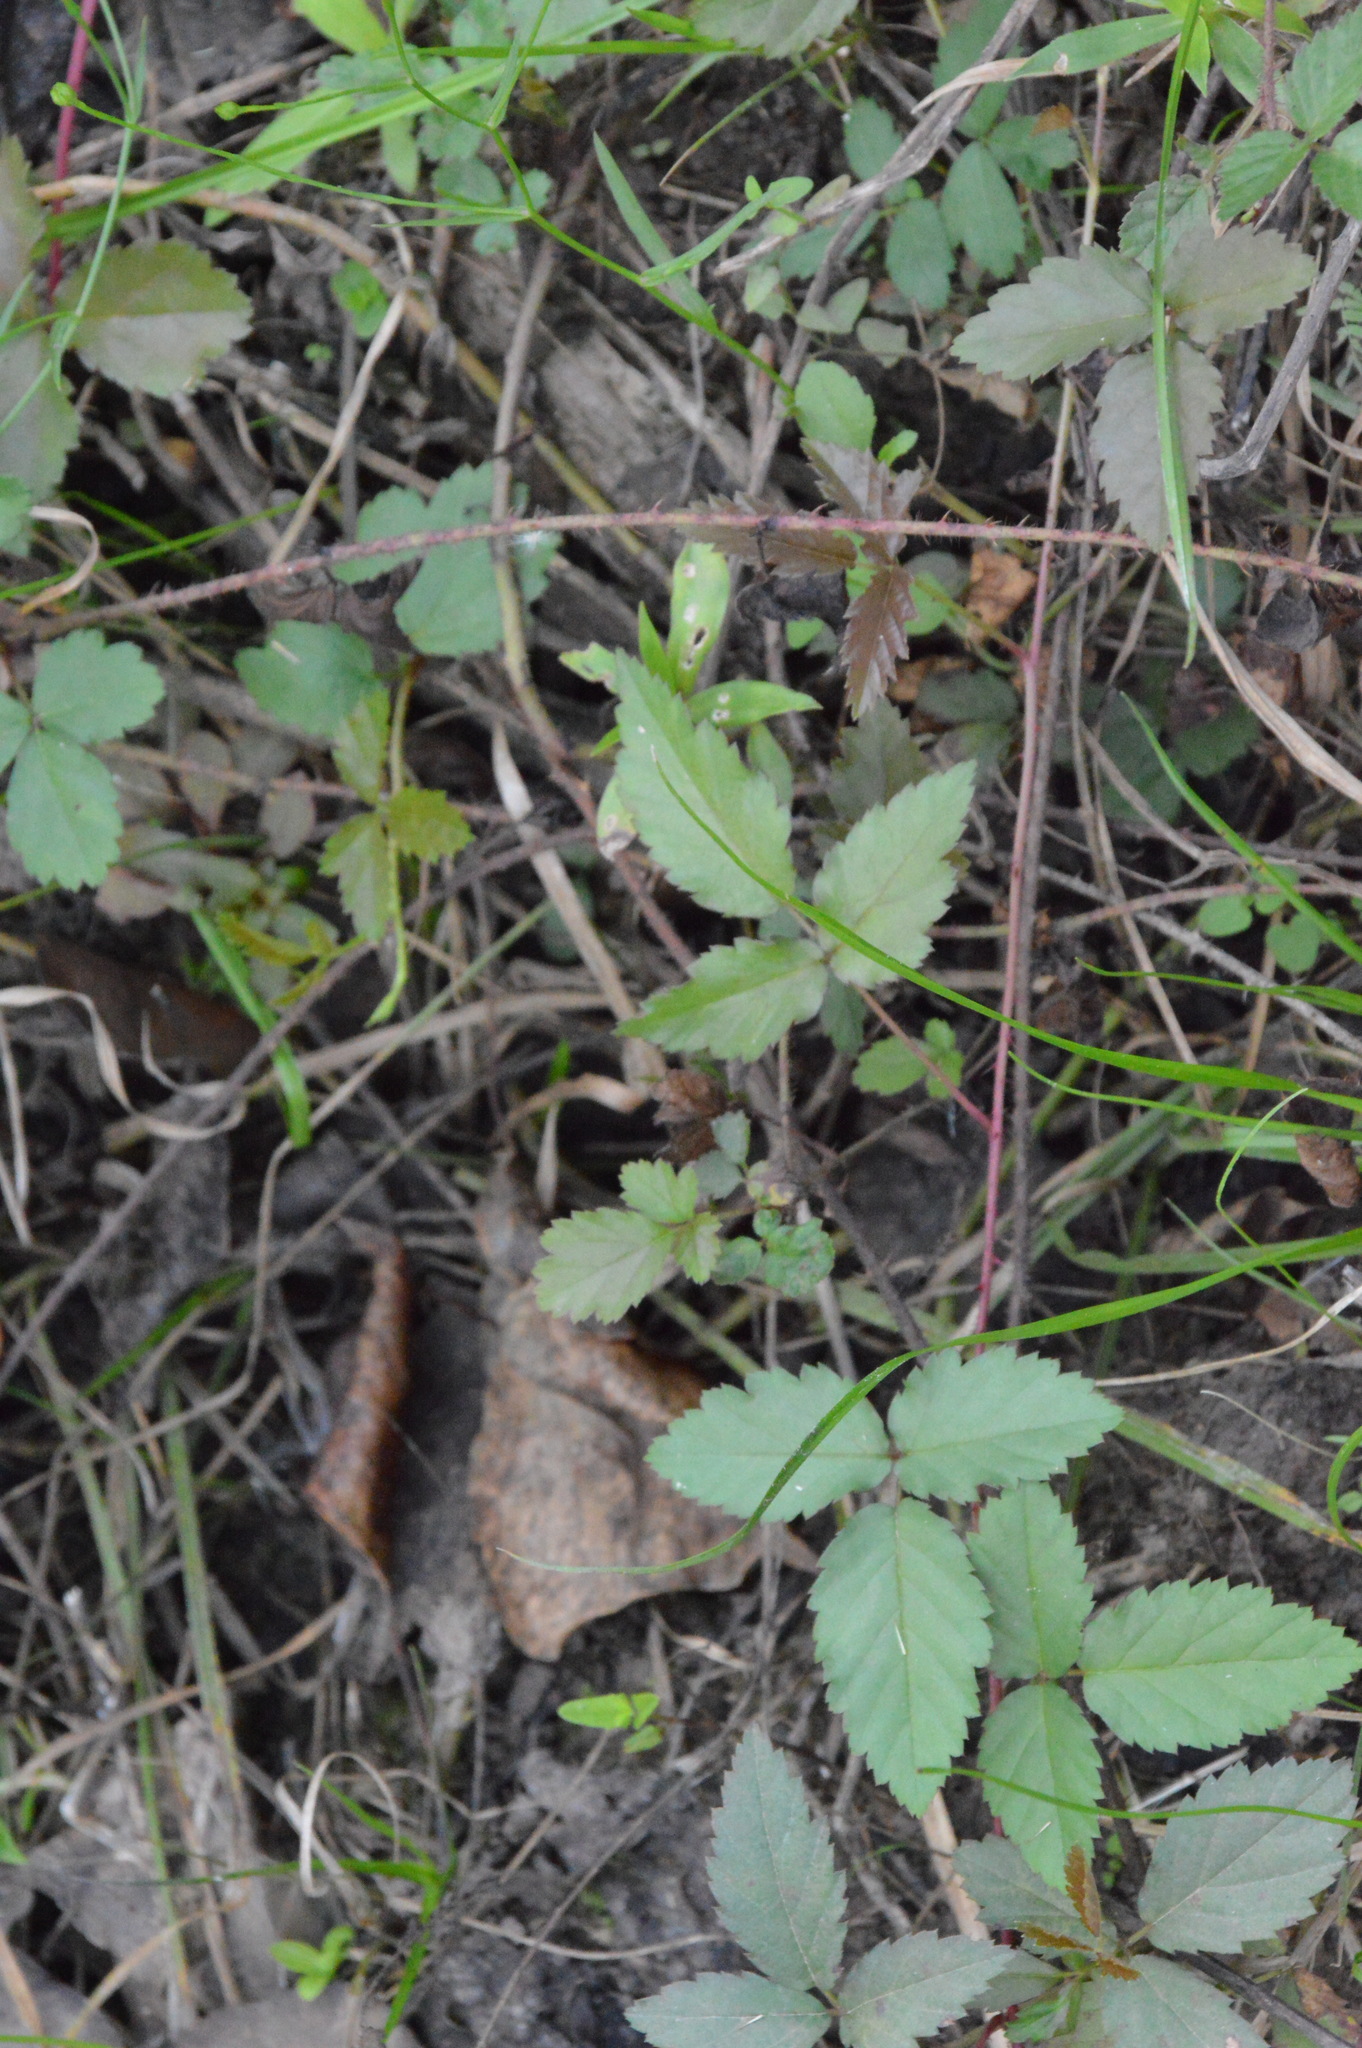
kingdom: Plantae
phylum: Tracheophyta
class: Magnoliopsida
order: Rosales
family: Rosaceae
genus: Rubus
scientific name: Rubus trivialis
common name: Southern dewberry
